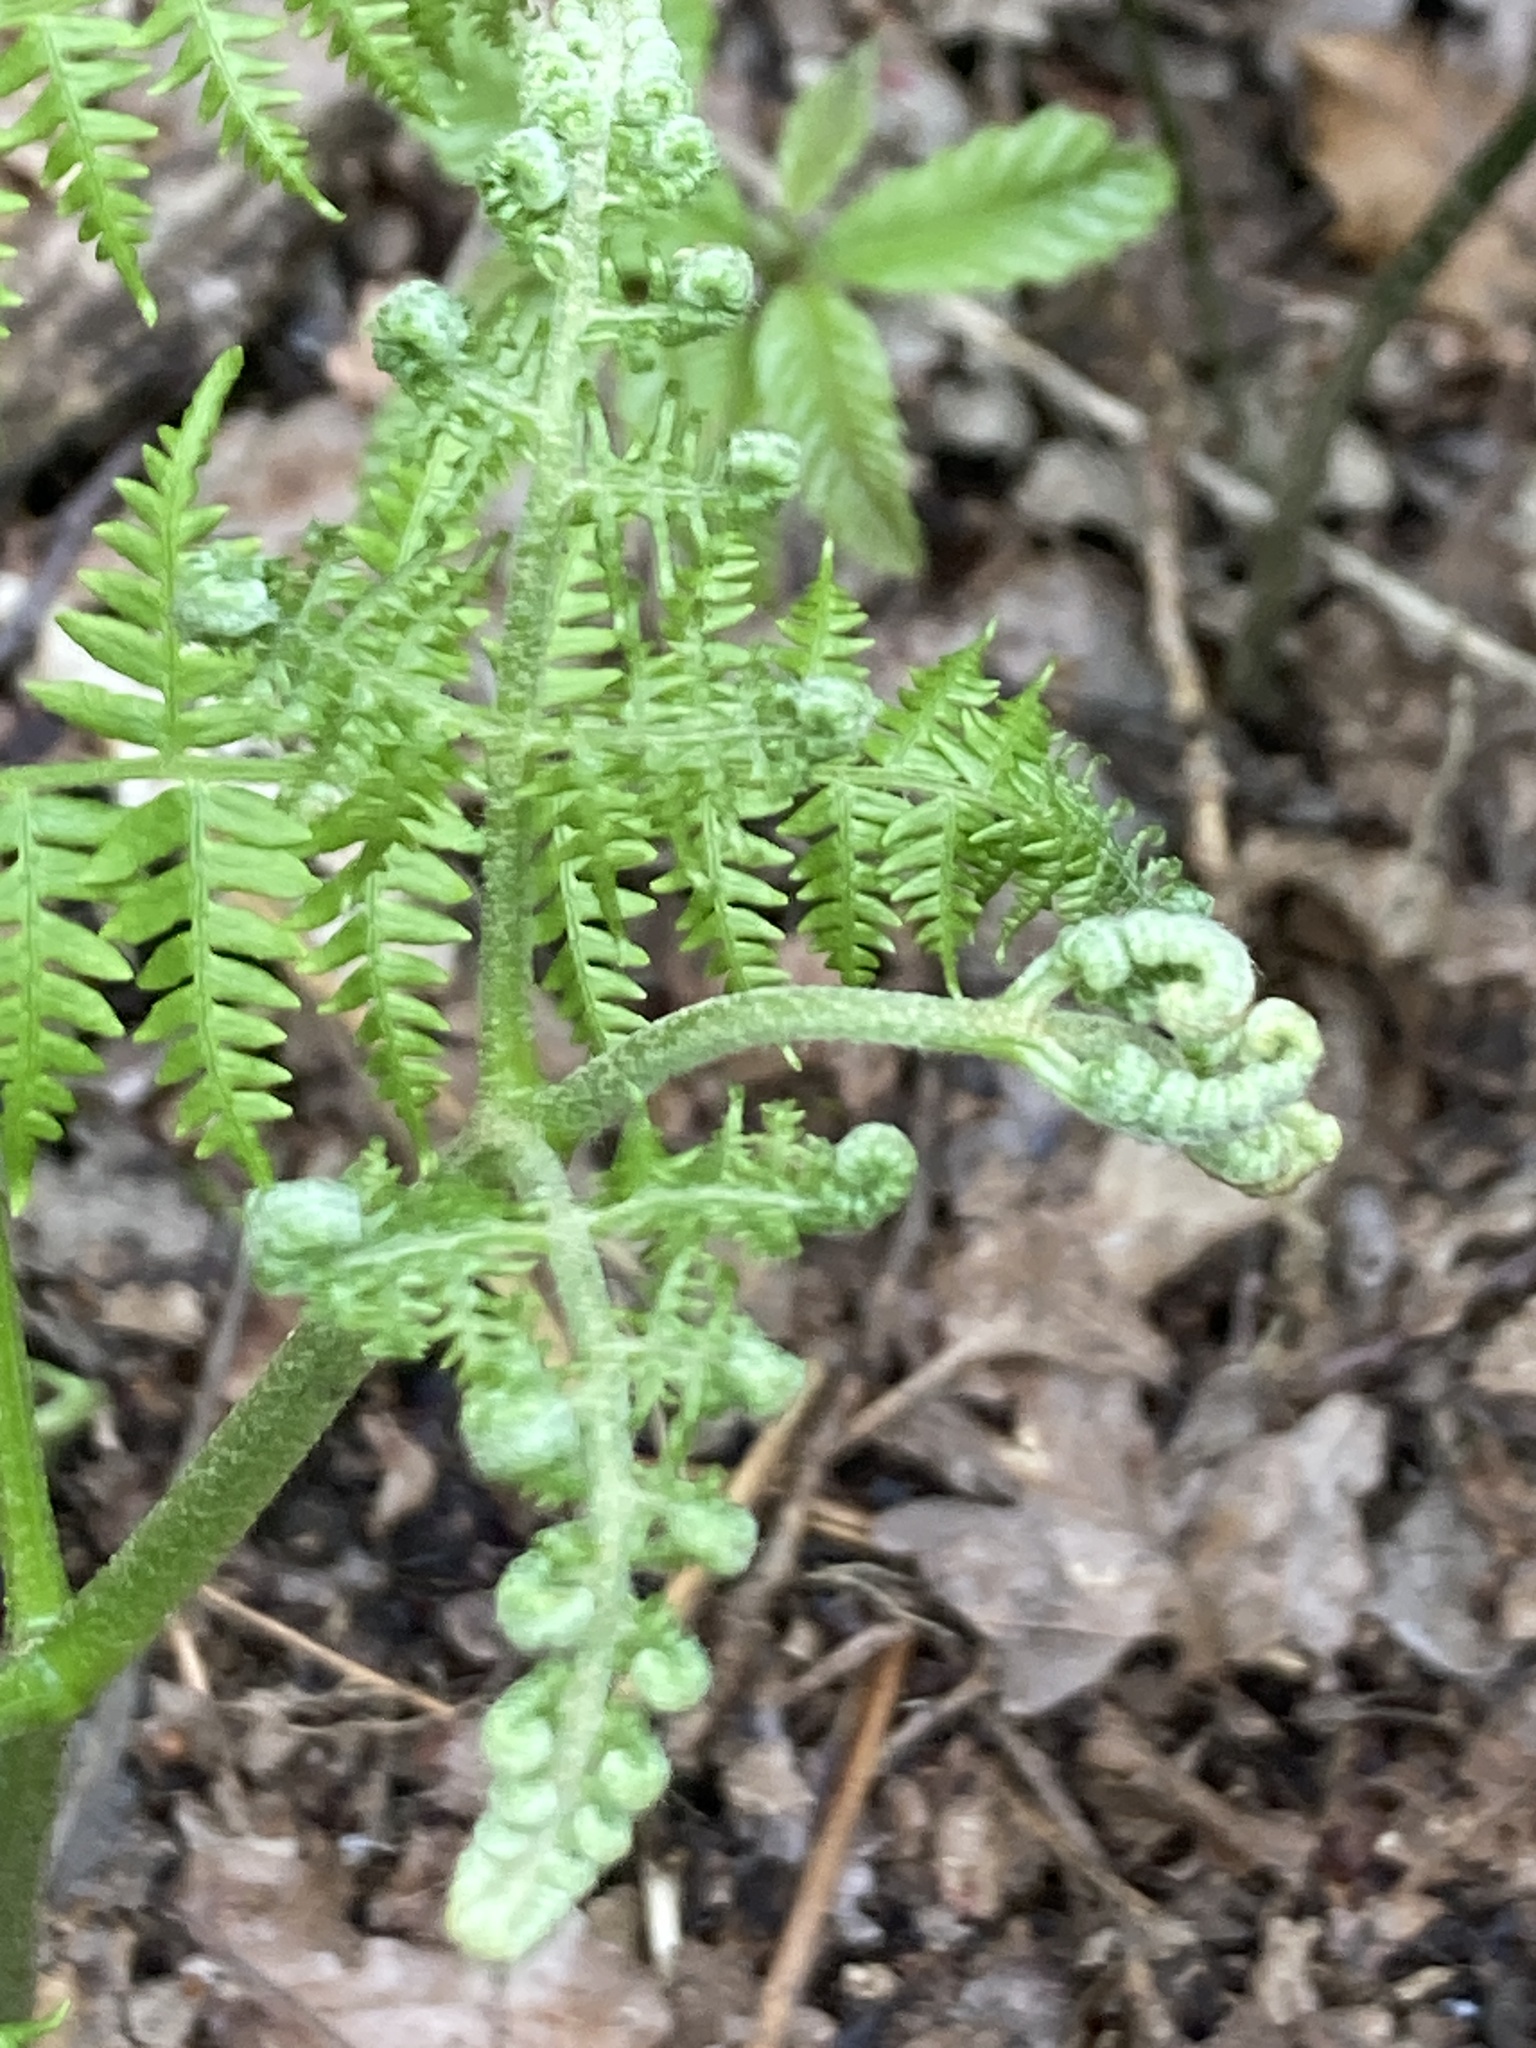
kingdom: Plantae
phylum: Tracheophyta
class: Polypodiopsida
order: Polypodiales
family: Dennstaedtiaceae
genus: Pteridium
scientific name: Pteridium aquilinum
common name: Bracken
